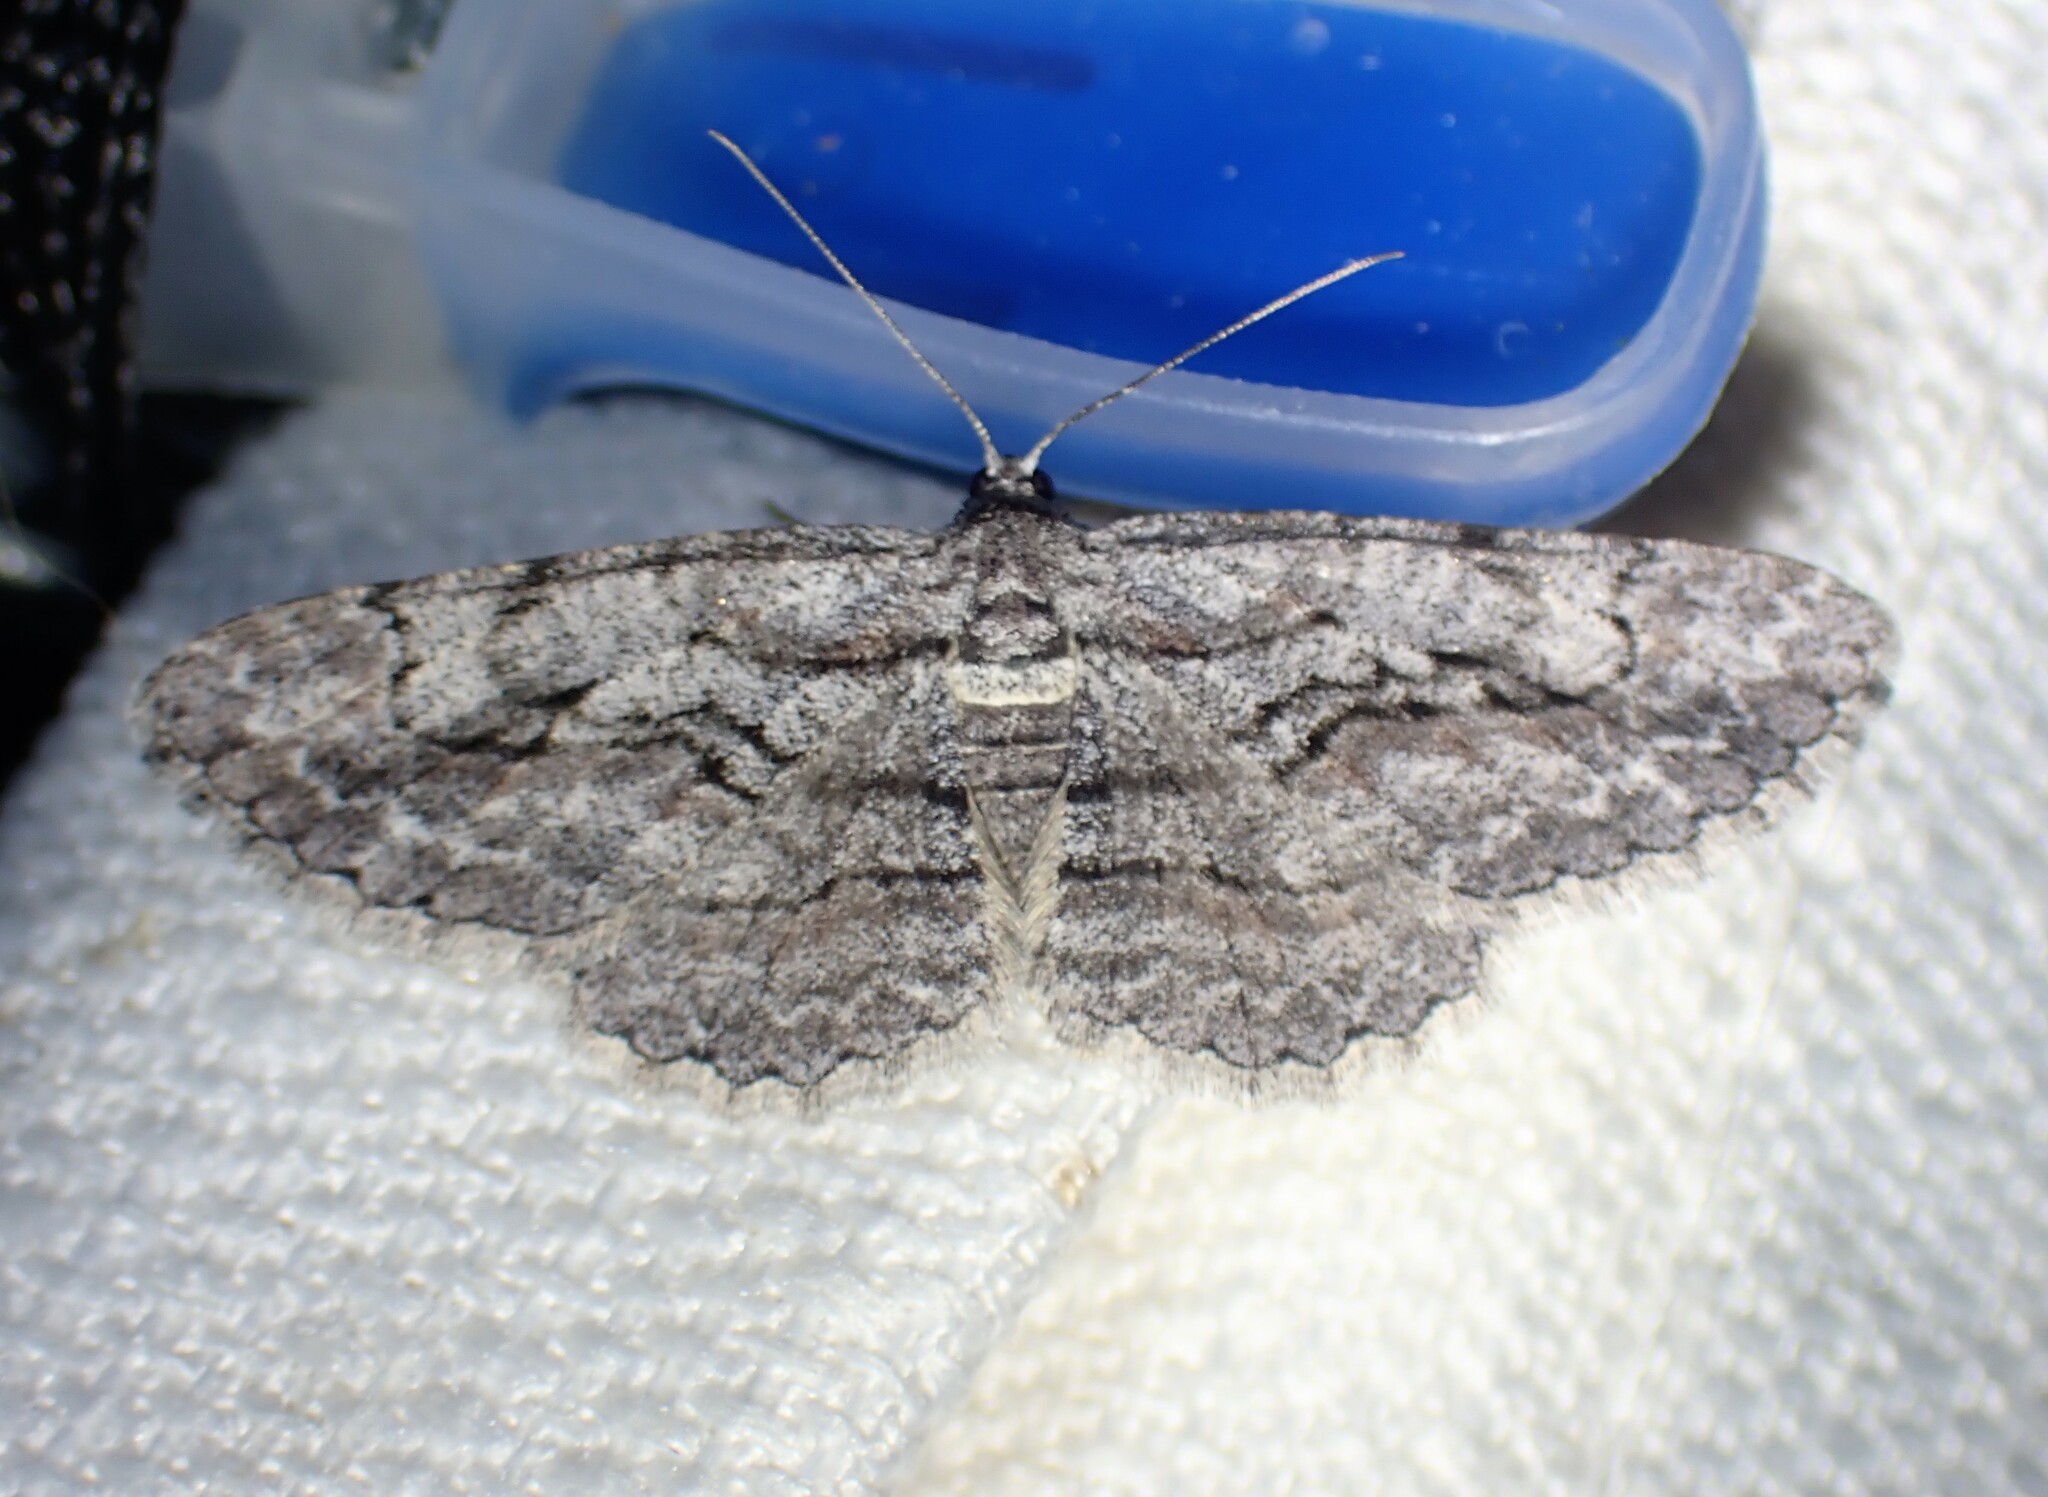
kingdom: Animalia
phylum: Arthropoda
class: Insecta
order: Lepidoptera
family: Geometridae
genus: Anavitrinella
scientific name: Anavitrinella pampinaria
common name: Common gray
